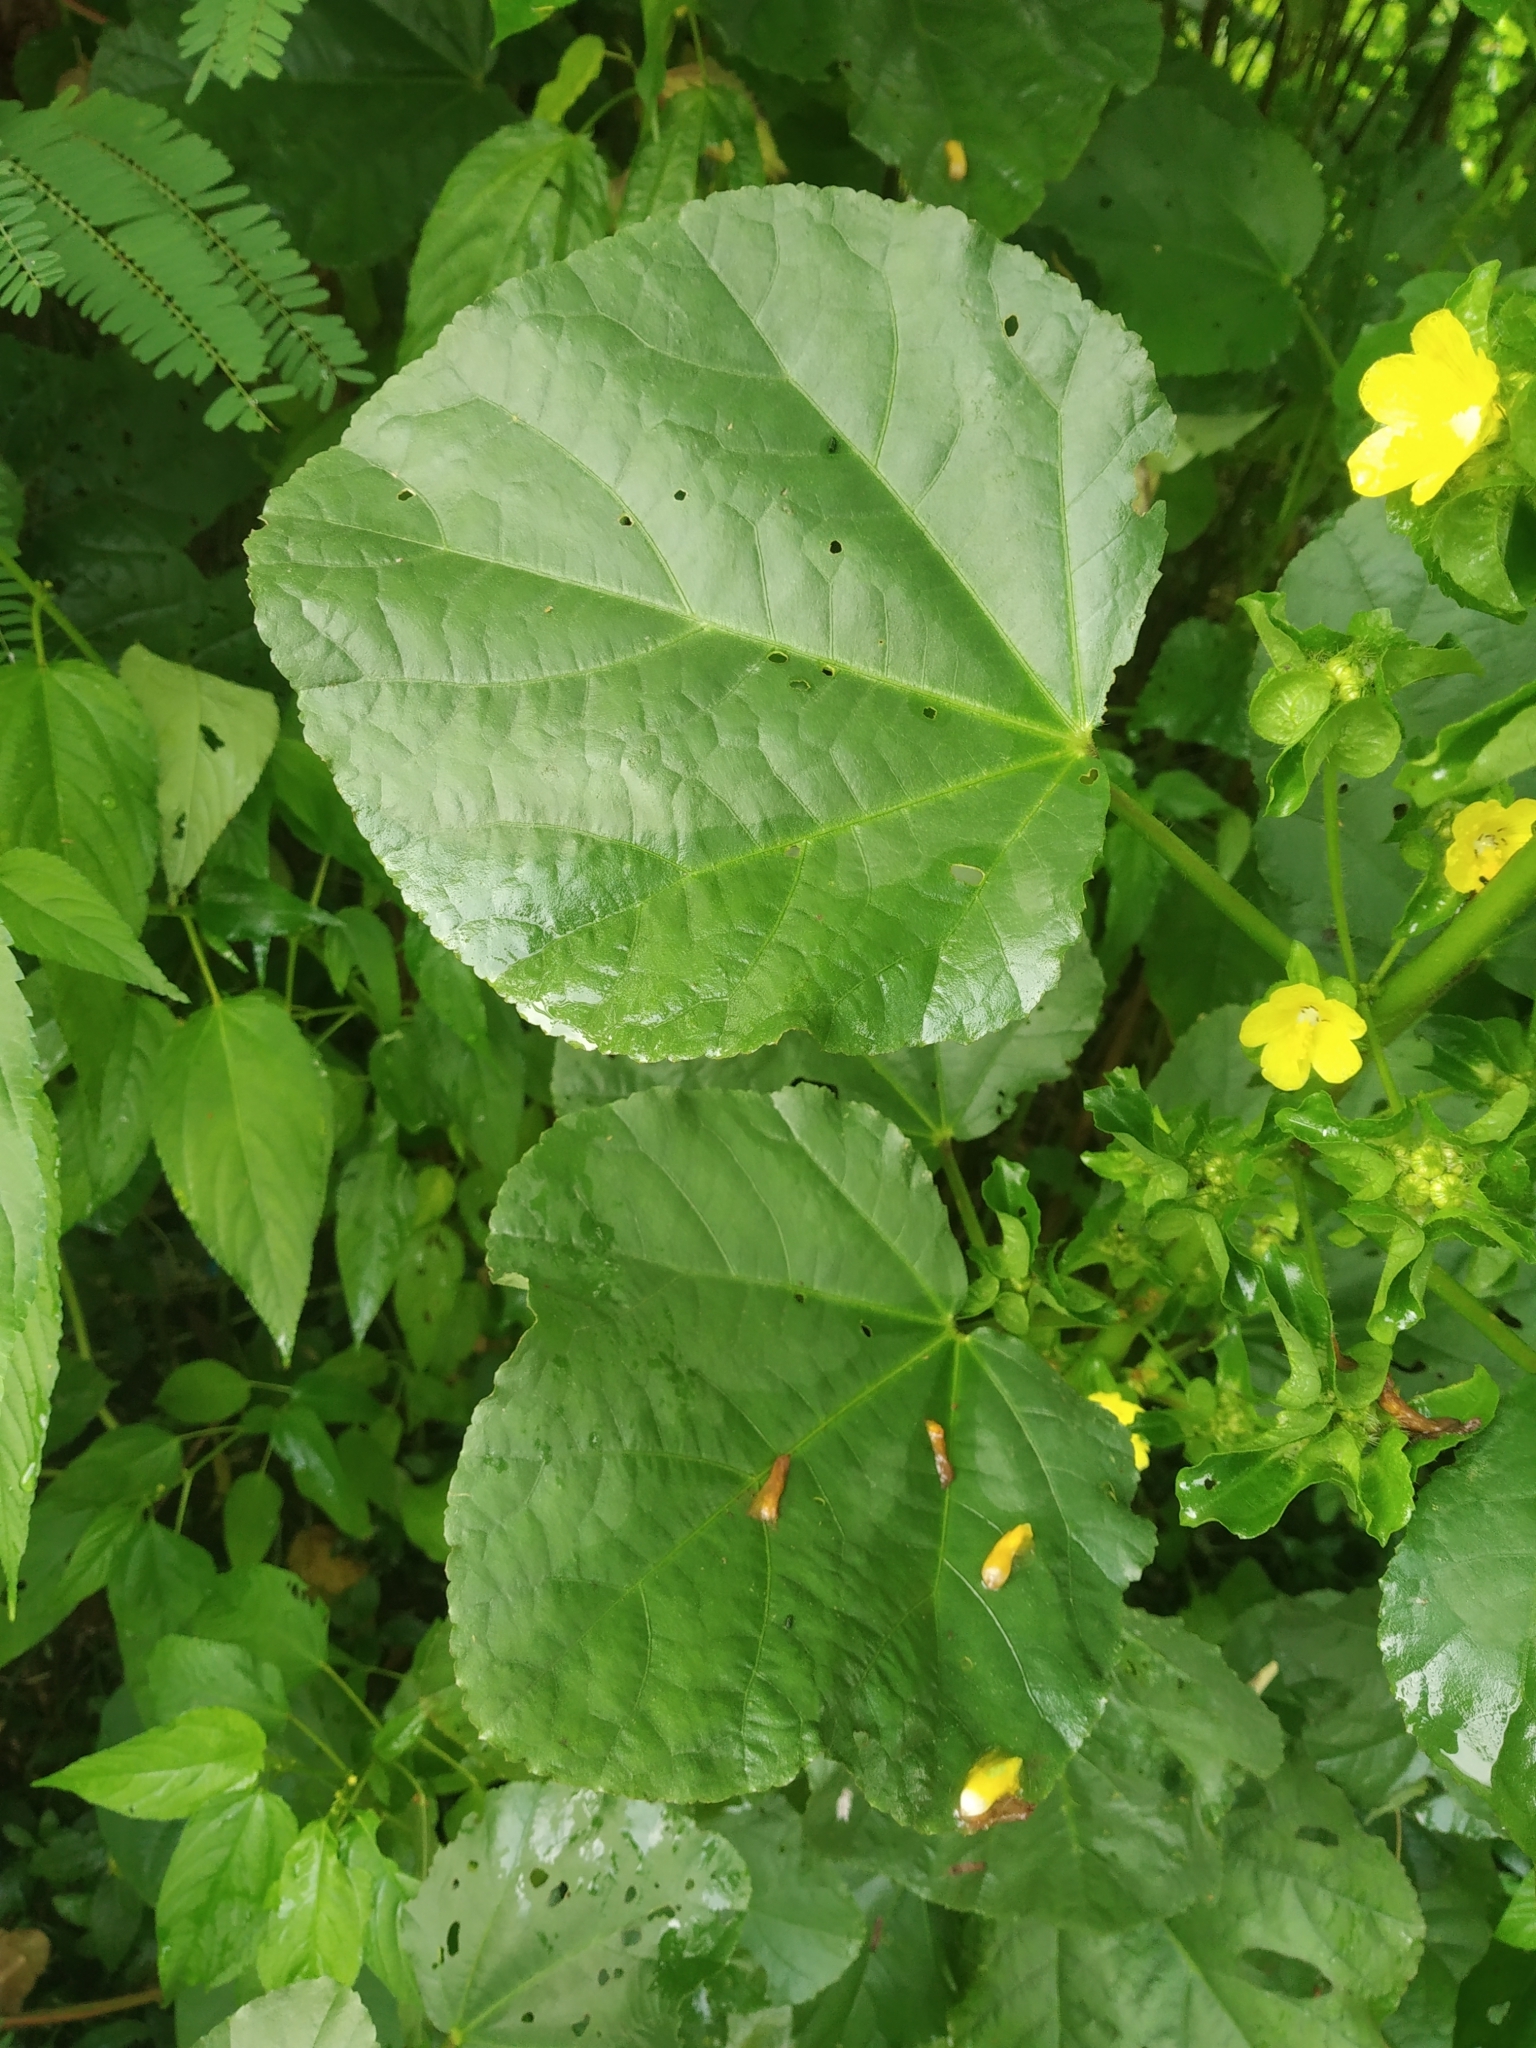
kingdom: Plantae
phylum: Tracheophyta
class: Magnoliopsida
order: Malvales
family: Malvaceae
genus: Malachra
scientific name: Malachra capitata
